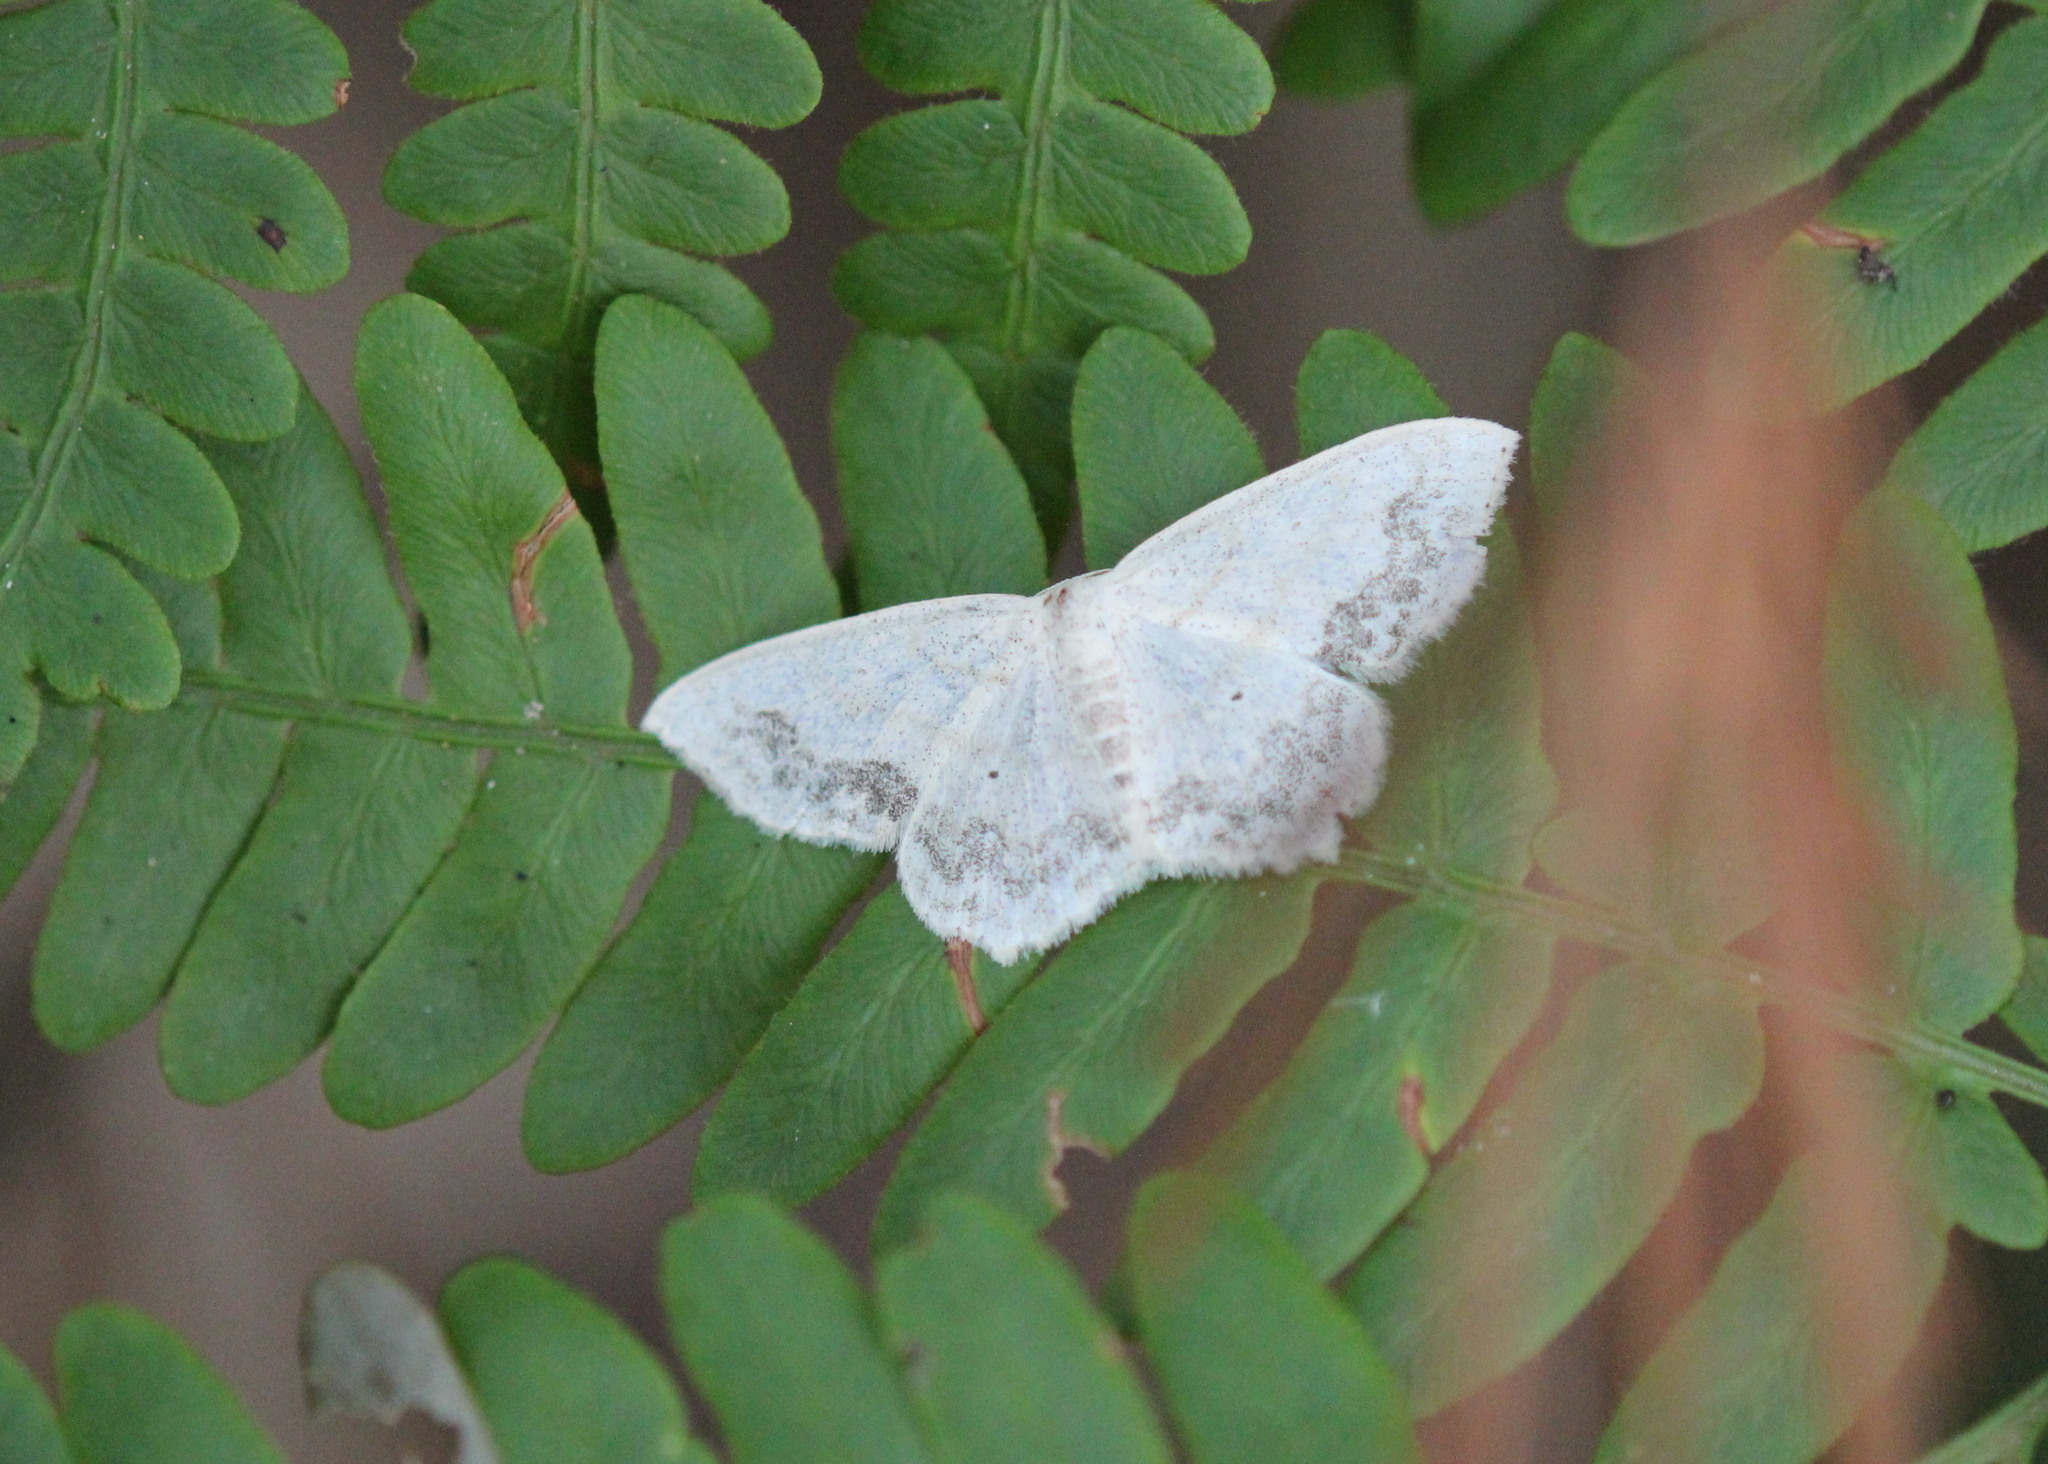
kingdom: Animalia
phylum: Arthropoda
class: Insecta
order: Lepidoptera
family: Geometridae
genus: Scopula
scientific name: Scopula limboundata
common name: Large lace border
